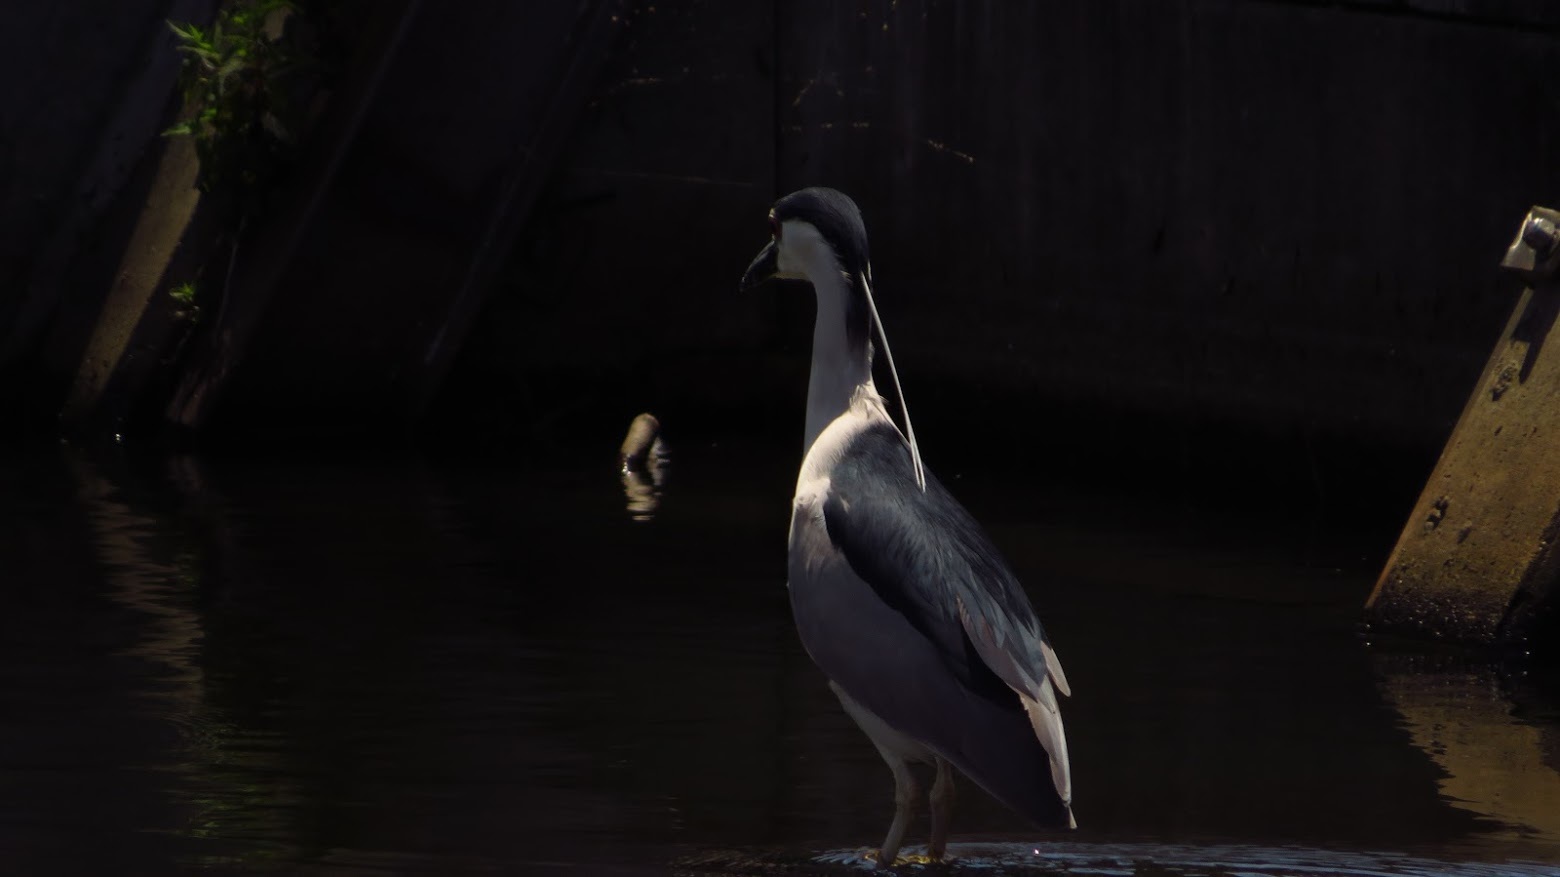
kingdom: Animalia
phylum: Chordata
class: Aves
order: Pelecaniformes
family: Ardeidae
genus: Nycticorax
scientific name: Nycticorax nycticorax
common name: Black-crowned night heron
